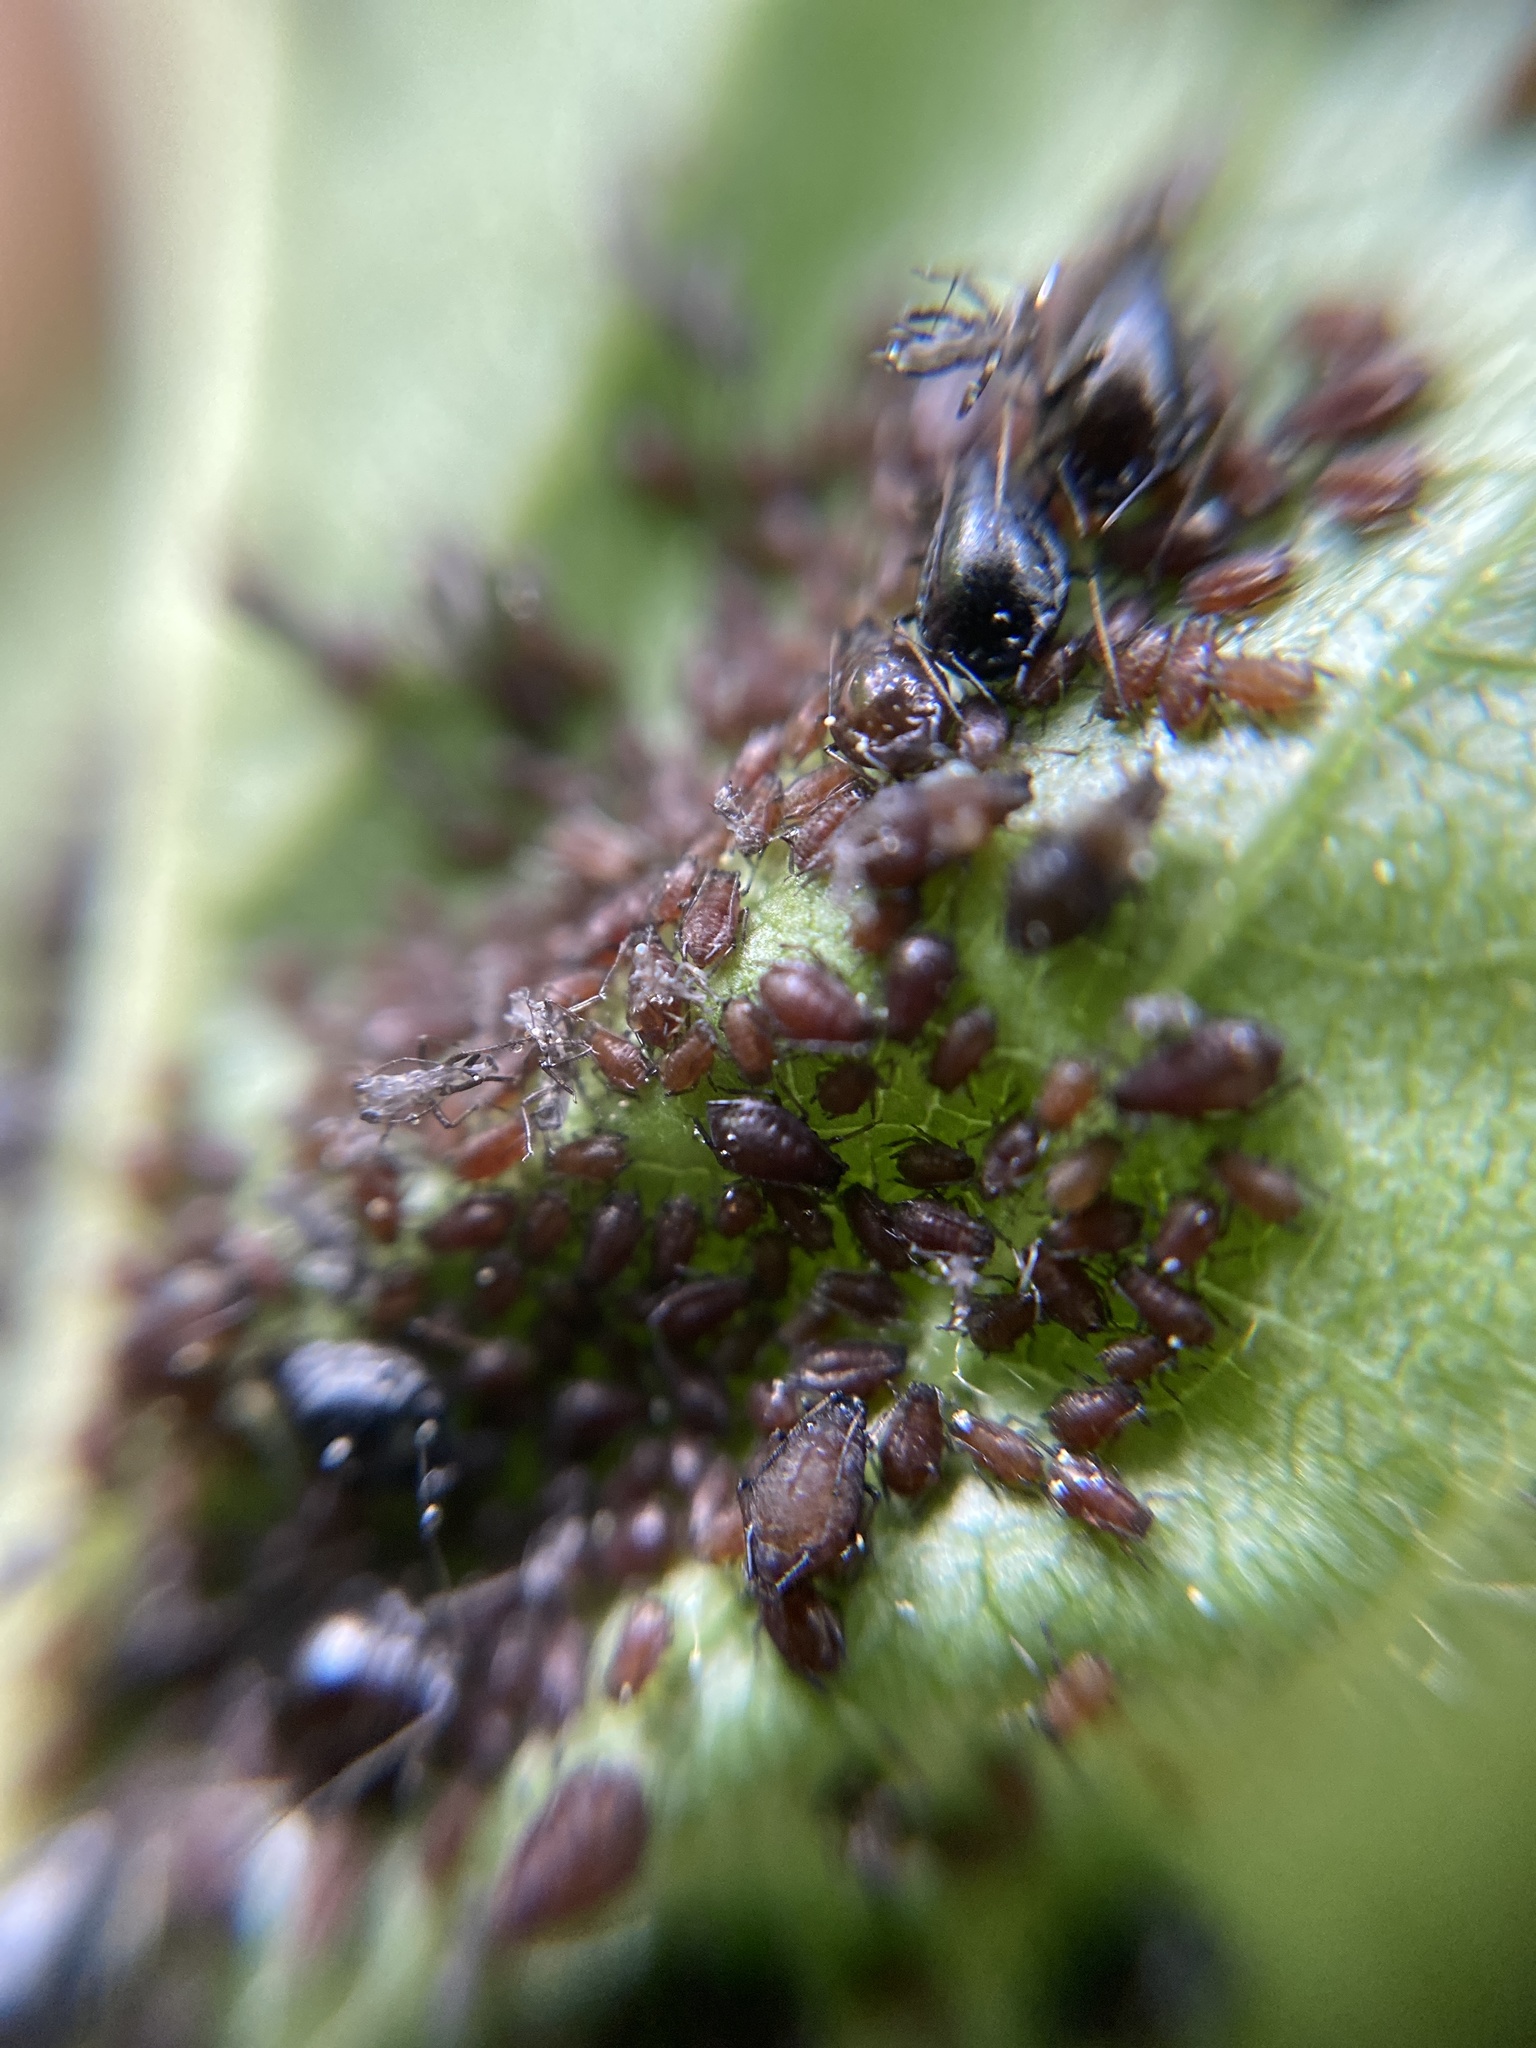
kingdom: Animalia
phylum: Arthropoda
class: Insecta
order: Hemiptera
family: Aphididae
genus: Myzus
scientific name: Myzus cerasi
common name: Black cherry aphid
